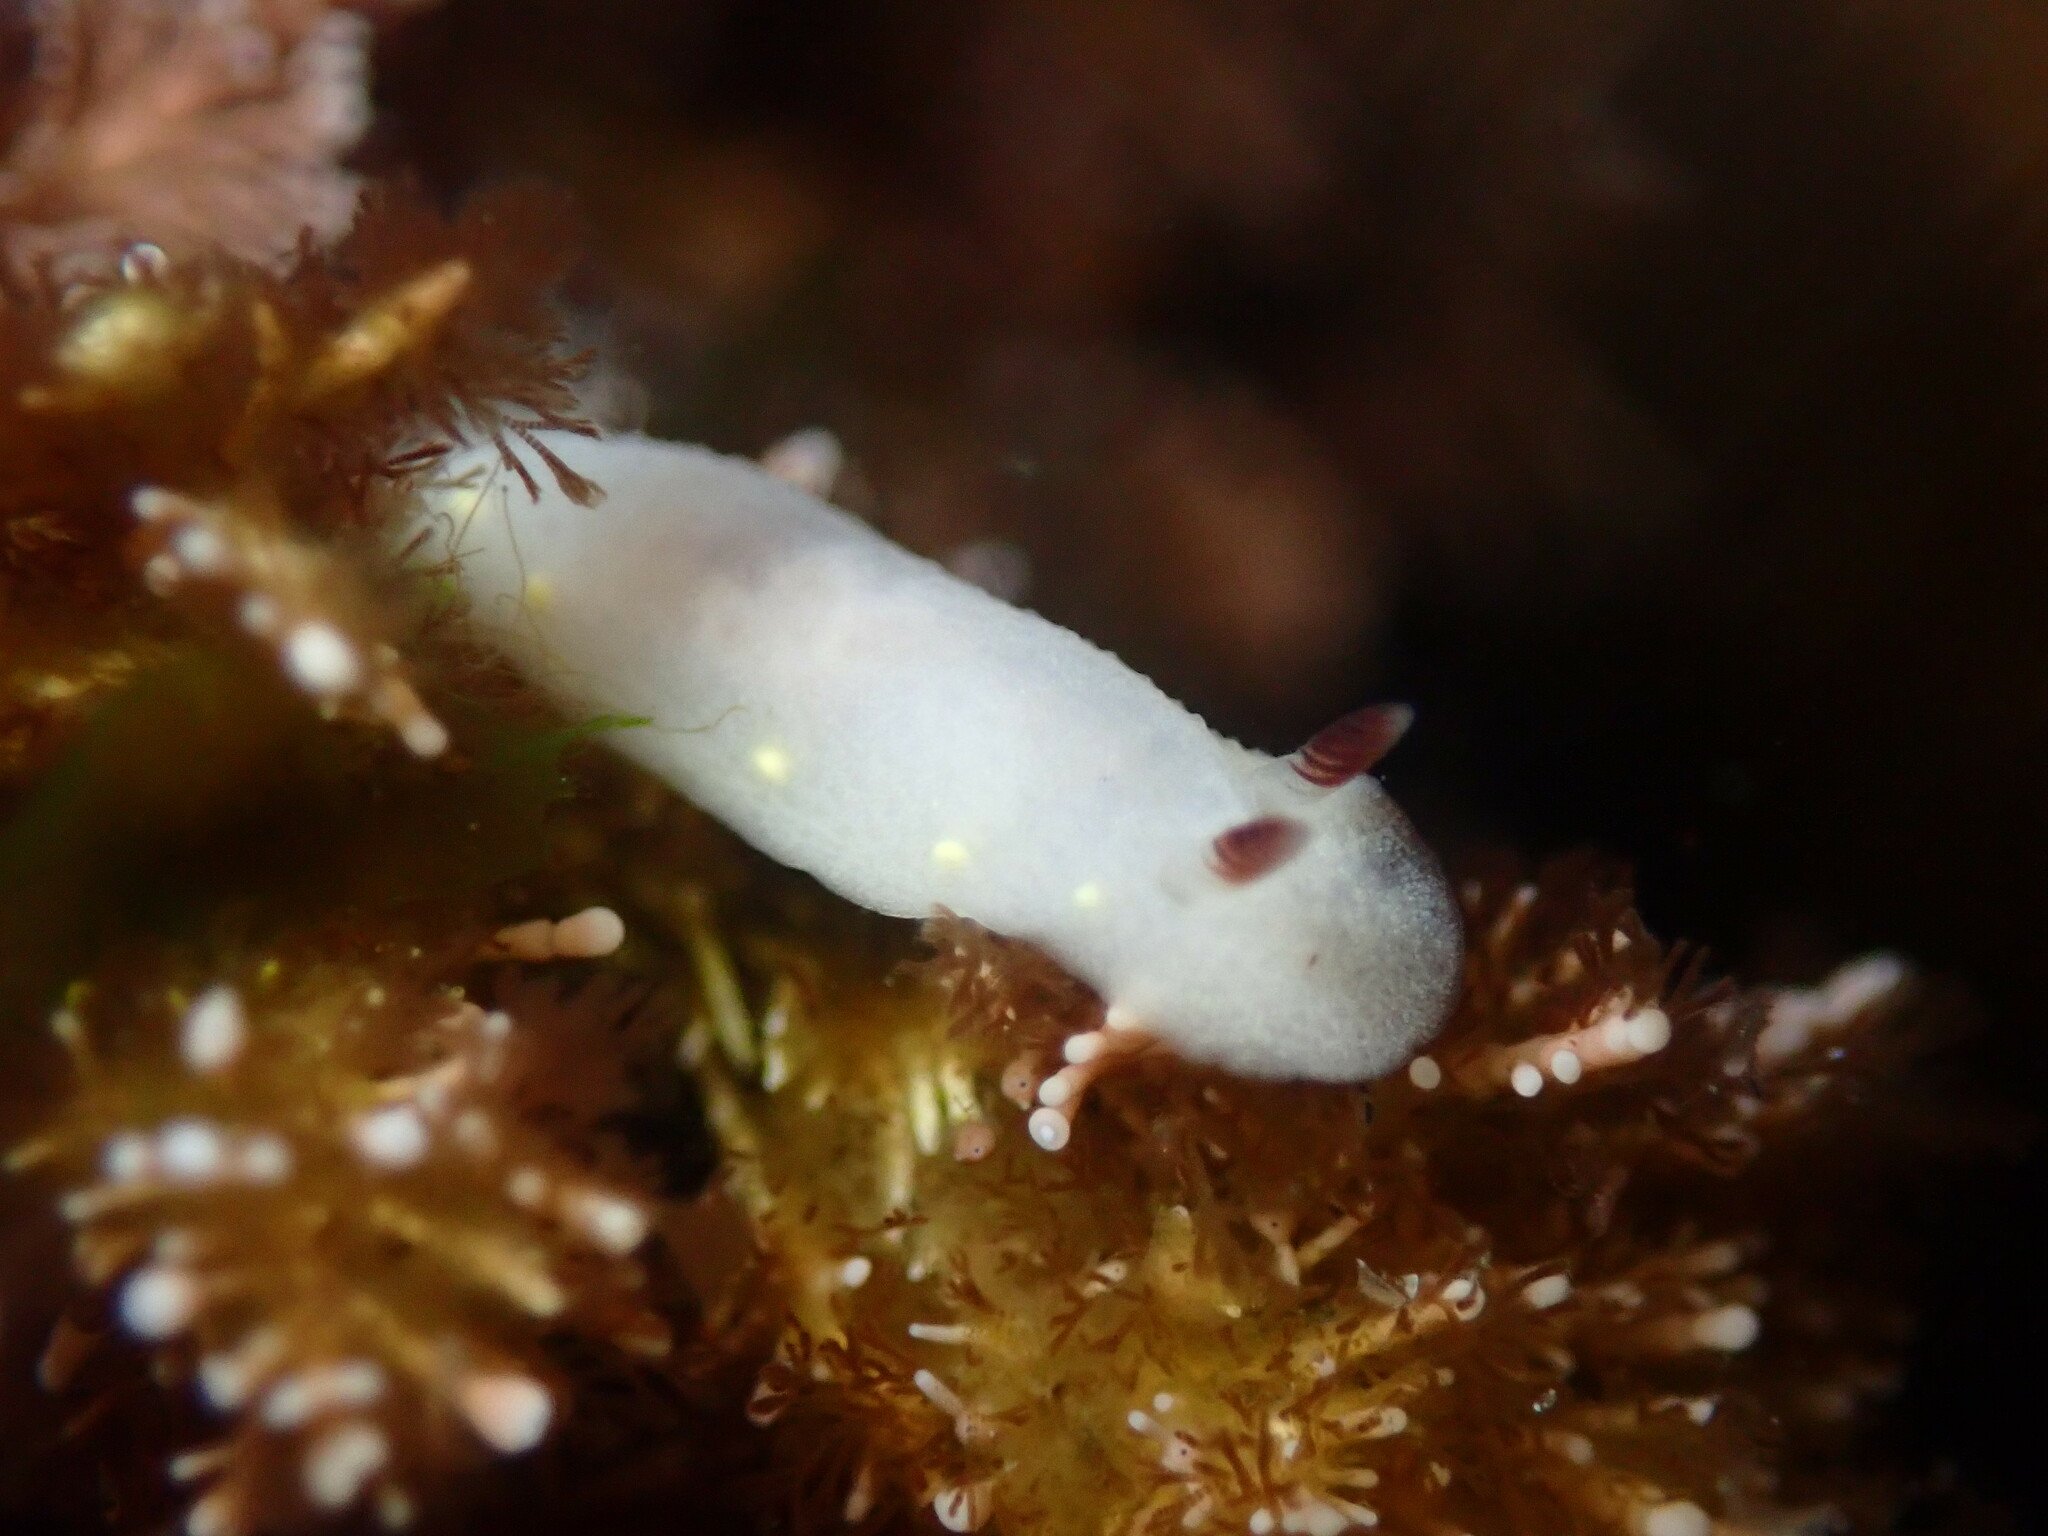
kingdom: Animalia
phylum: Mollusca
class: Gastropoda
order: Nudibranchia
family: Cadlinidae
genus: Cadlina
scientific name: Cadlina flavomaculata
